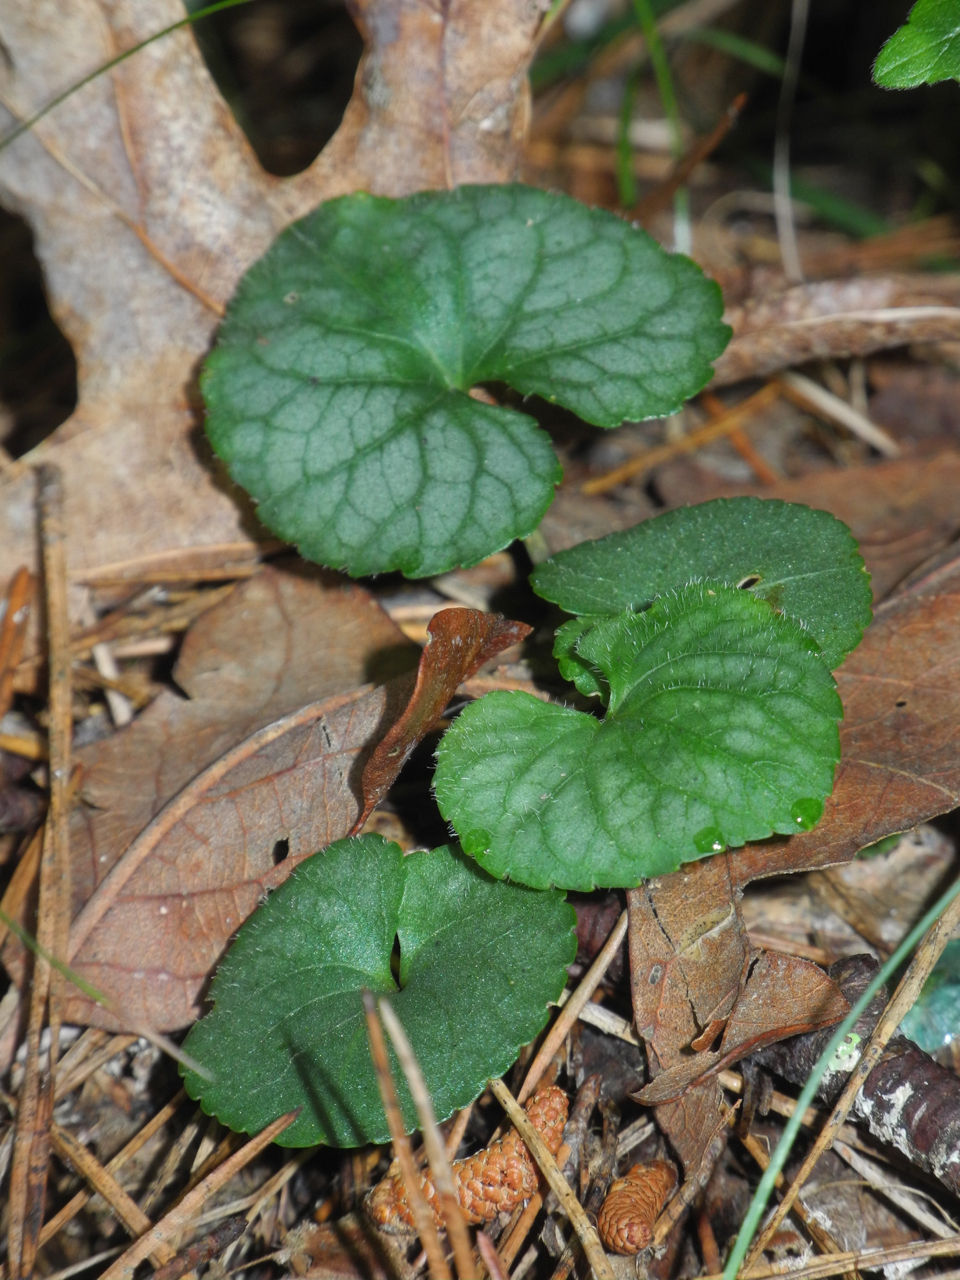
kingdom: Plantae
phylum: Tracheophyta
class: Magnoliopsida
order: Malpighiales
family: Violaceae
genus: Viola
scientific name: Viola hirsutula
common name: Southern wood violet
